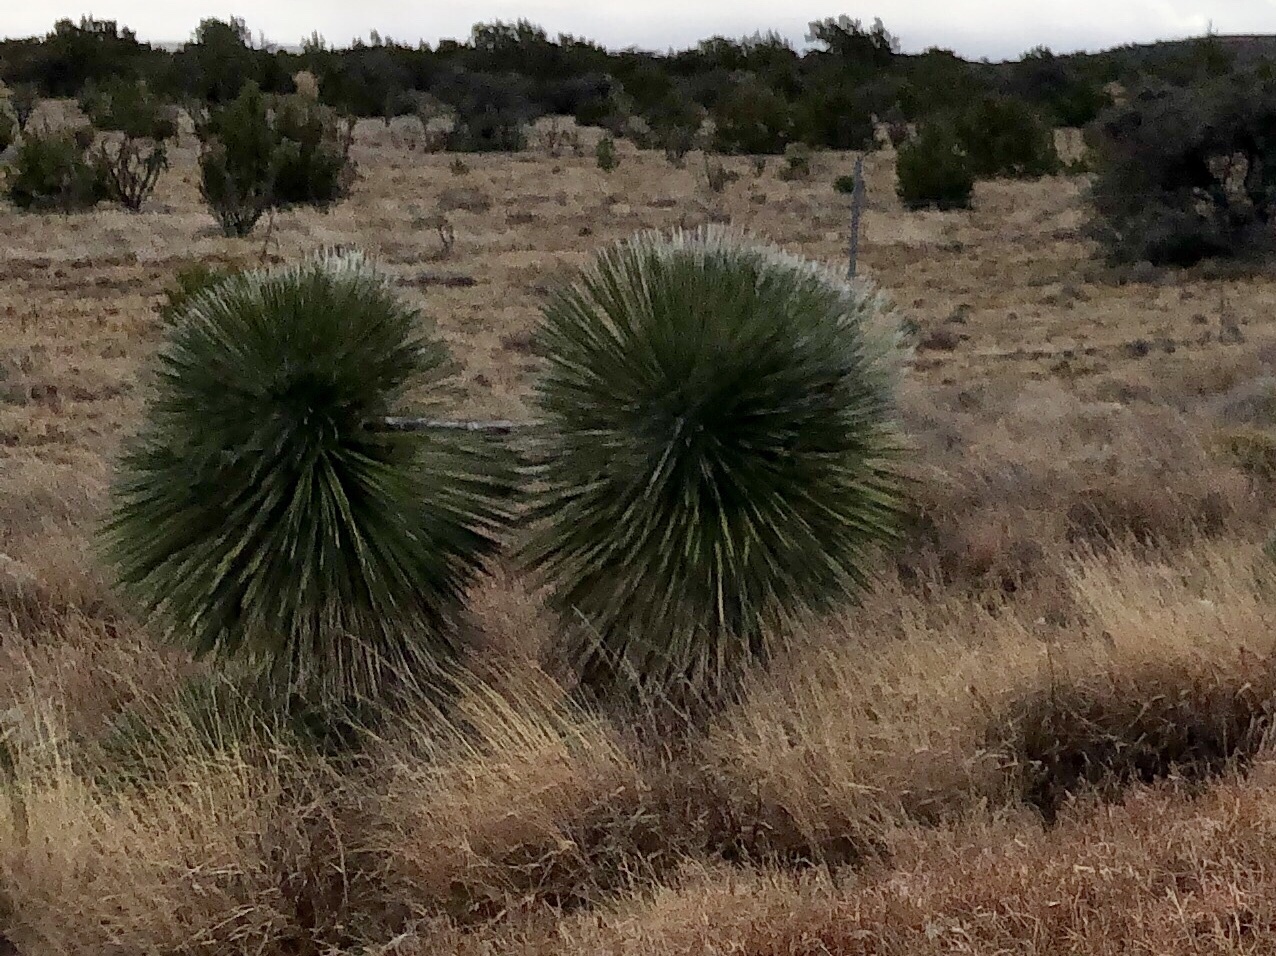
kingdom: Plantae
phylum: Tracheophyta
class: Liliopsida
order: Asparagales
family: Asparagaceae
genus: Yucca
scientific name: Yucca elata
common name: Palmella
